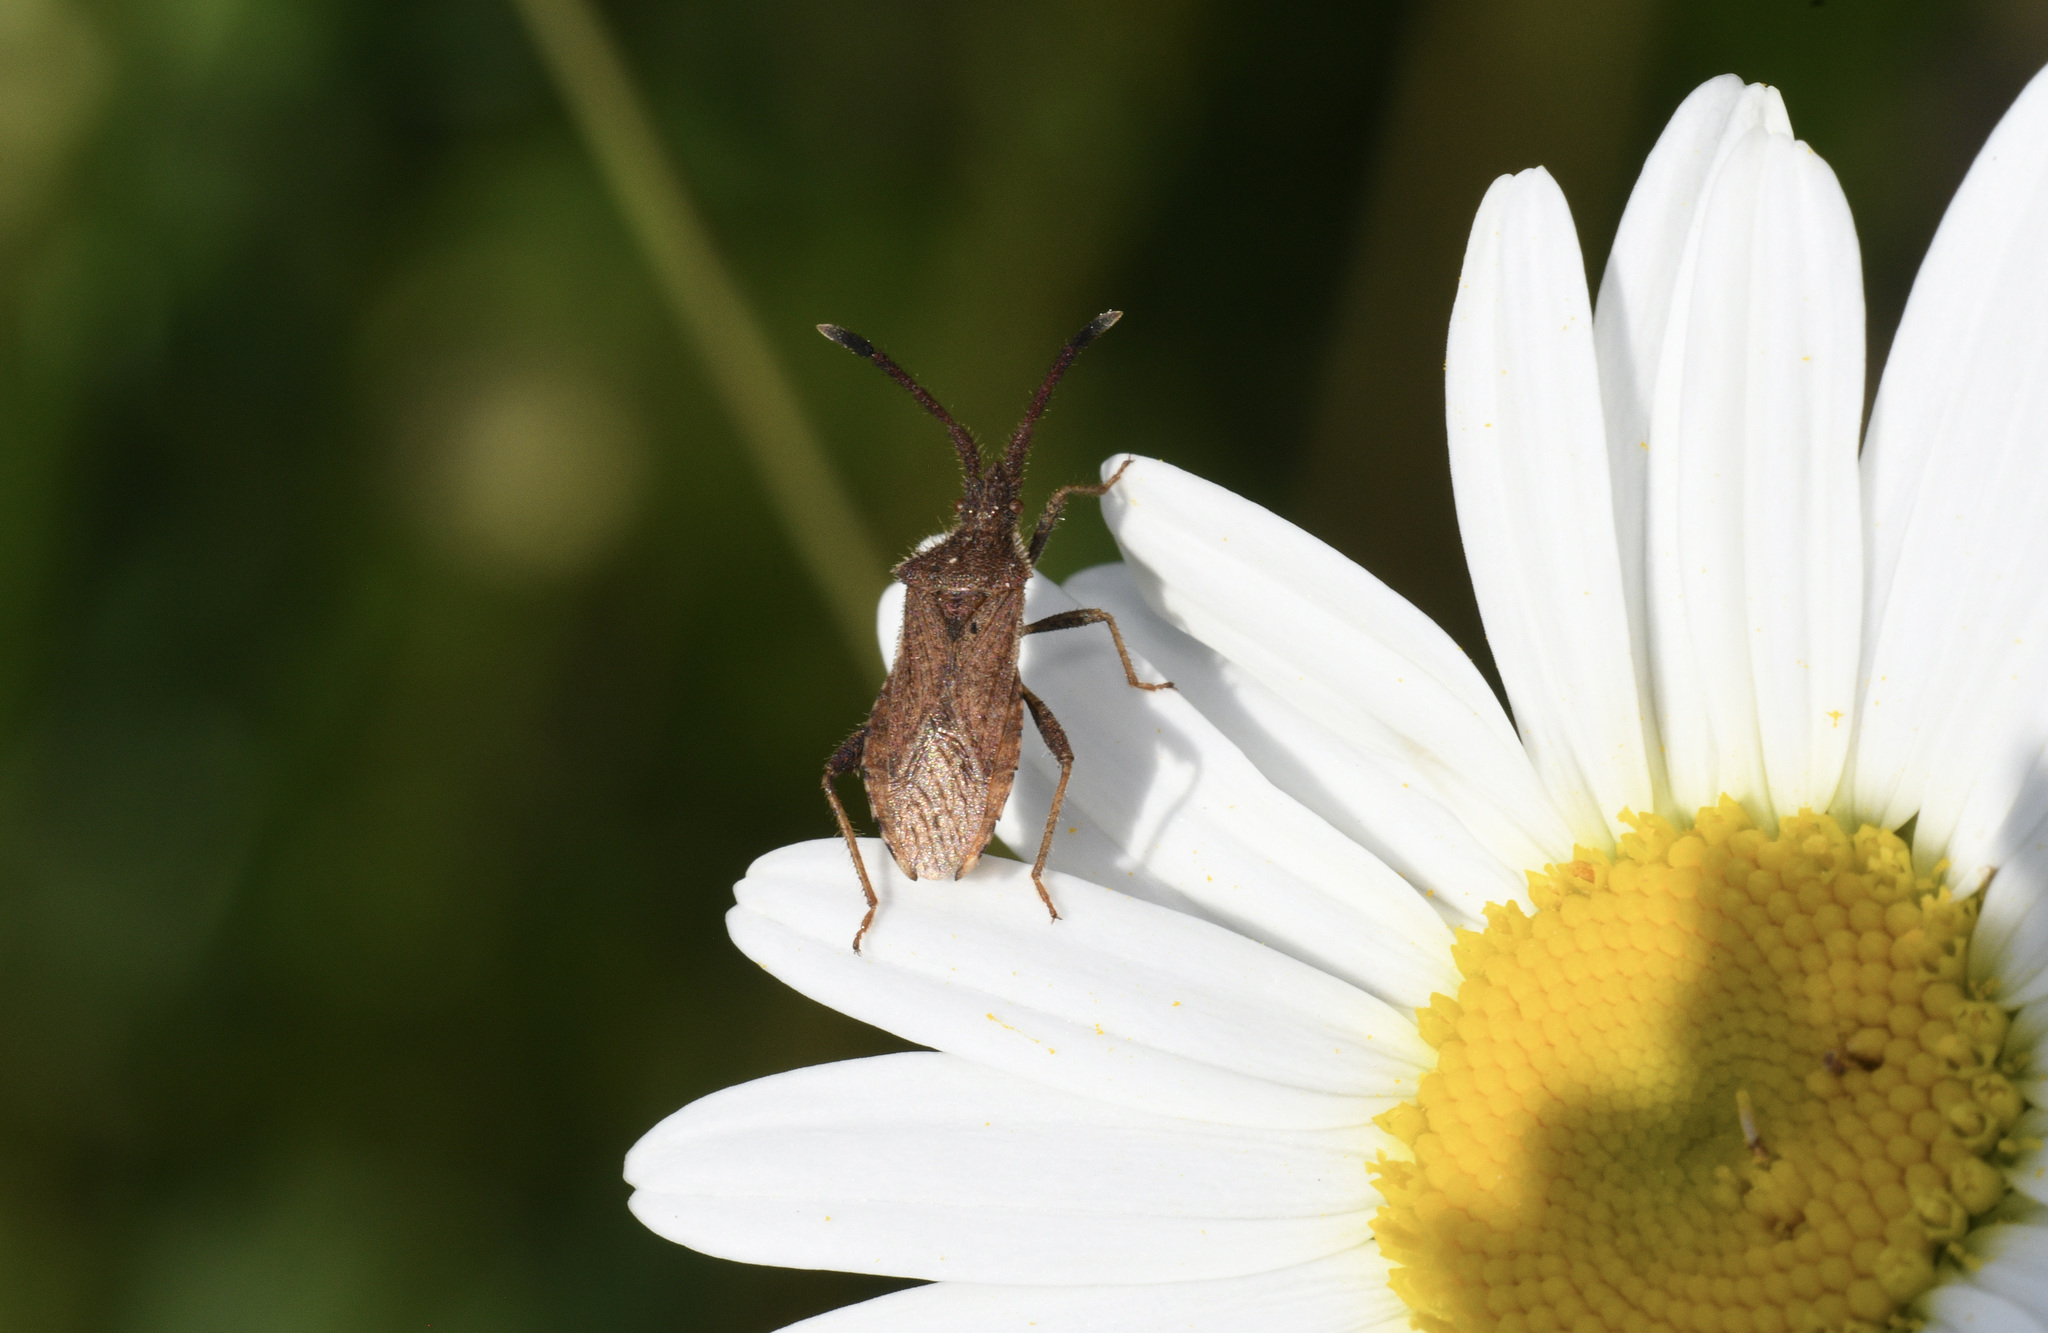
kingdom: Animalia
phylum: Arthropoda
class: Insecta
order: Hemiptera
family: Coreidae
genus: Coriomeris
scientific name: Coriomeris denticulatus
